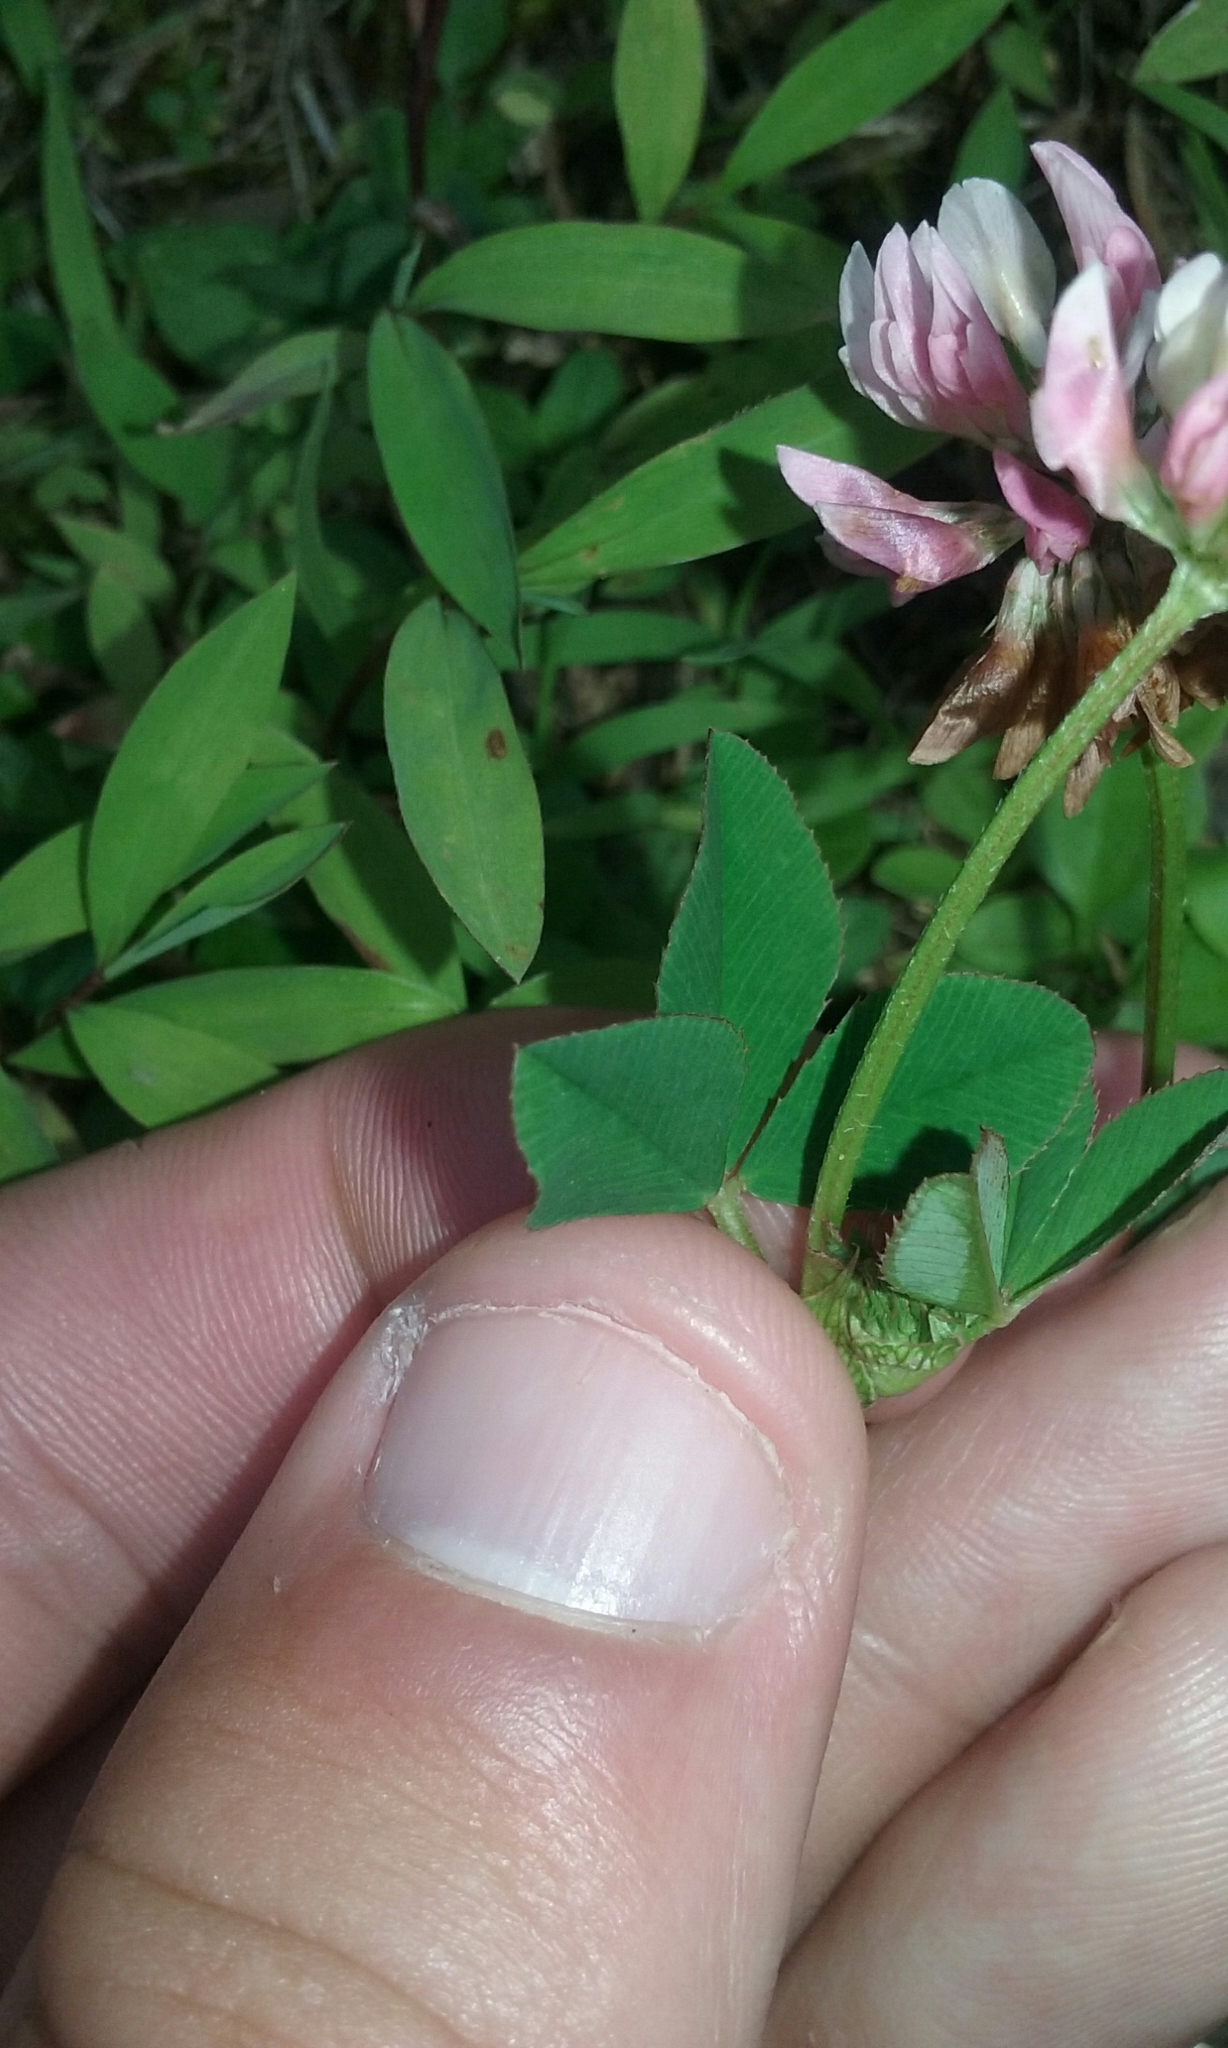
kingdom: Plantae
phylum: Tracheophyta
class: Magnoliopsida
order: Fabales
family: Fabaceae
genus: Trifolium
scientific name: Trifolium hybridum
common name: Alsike clover
